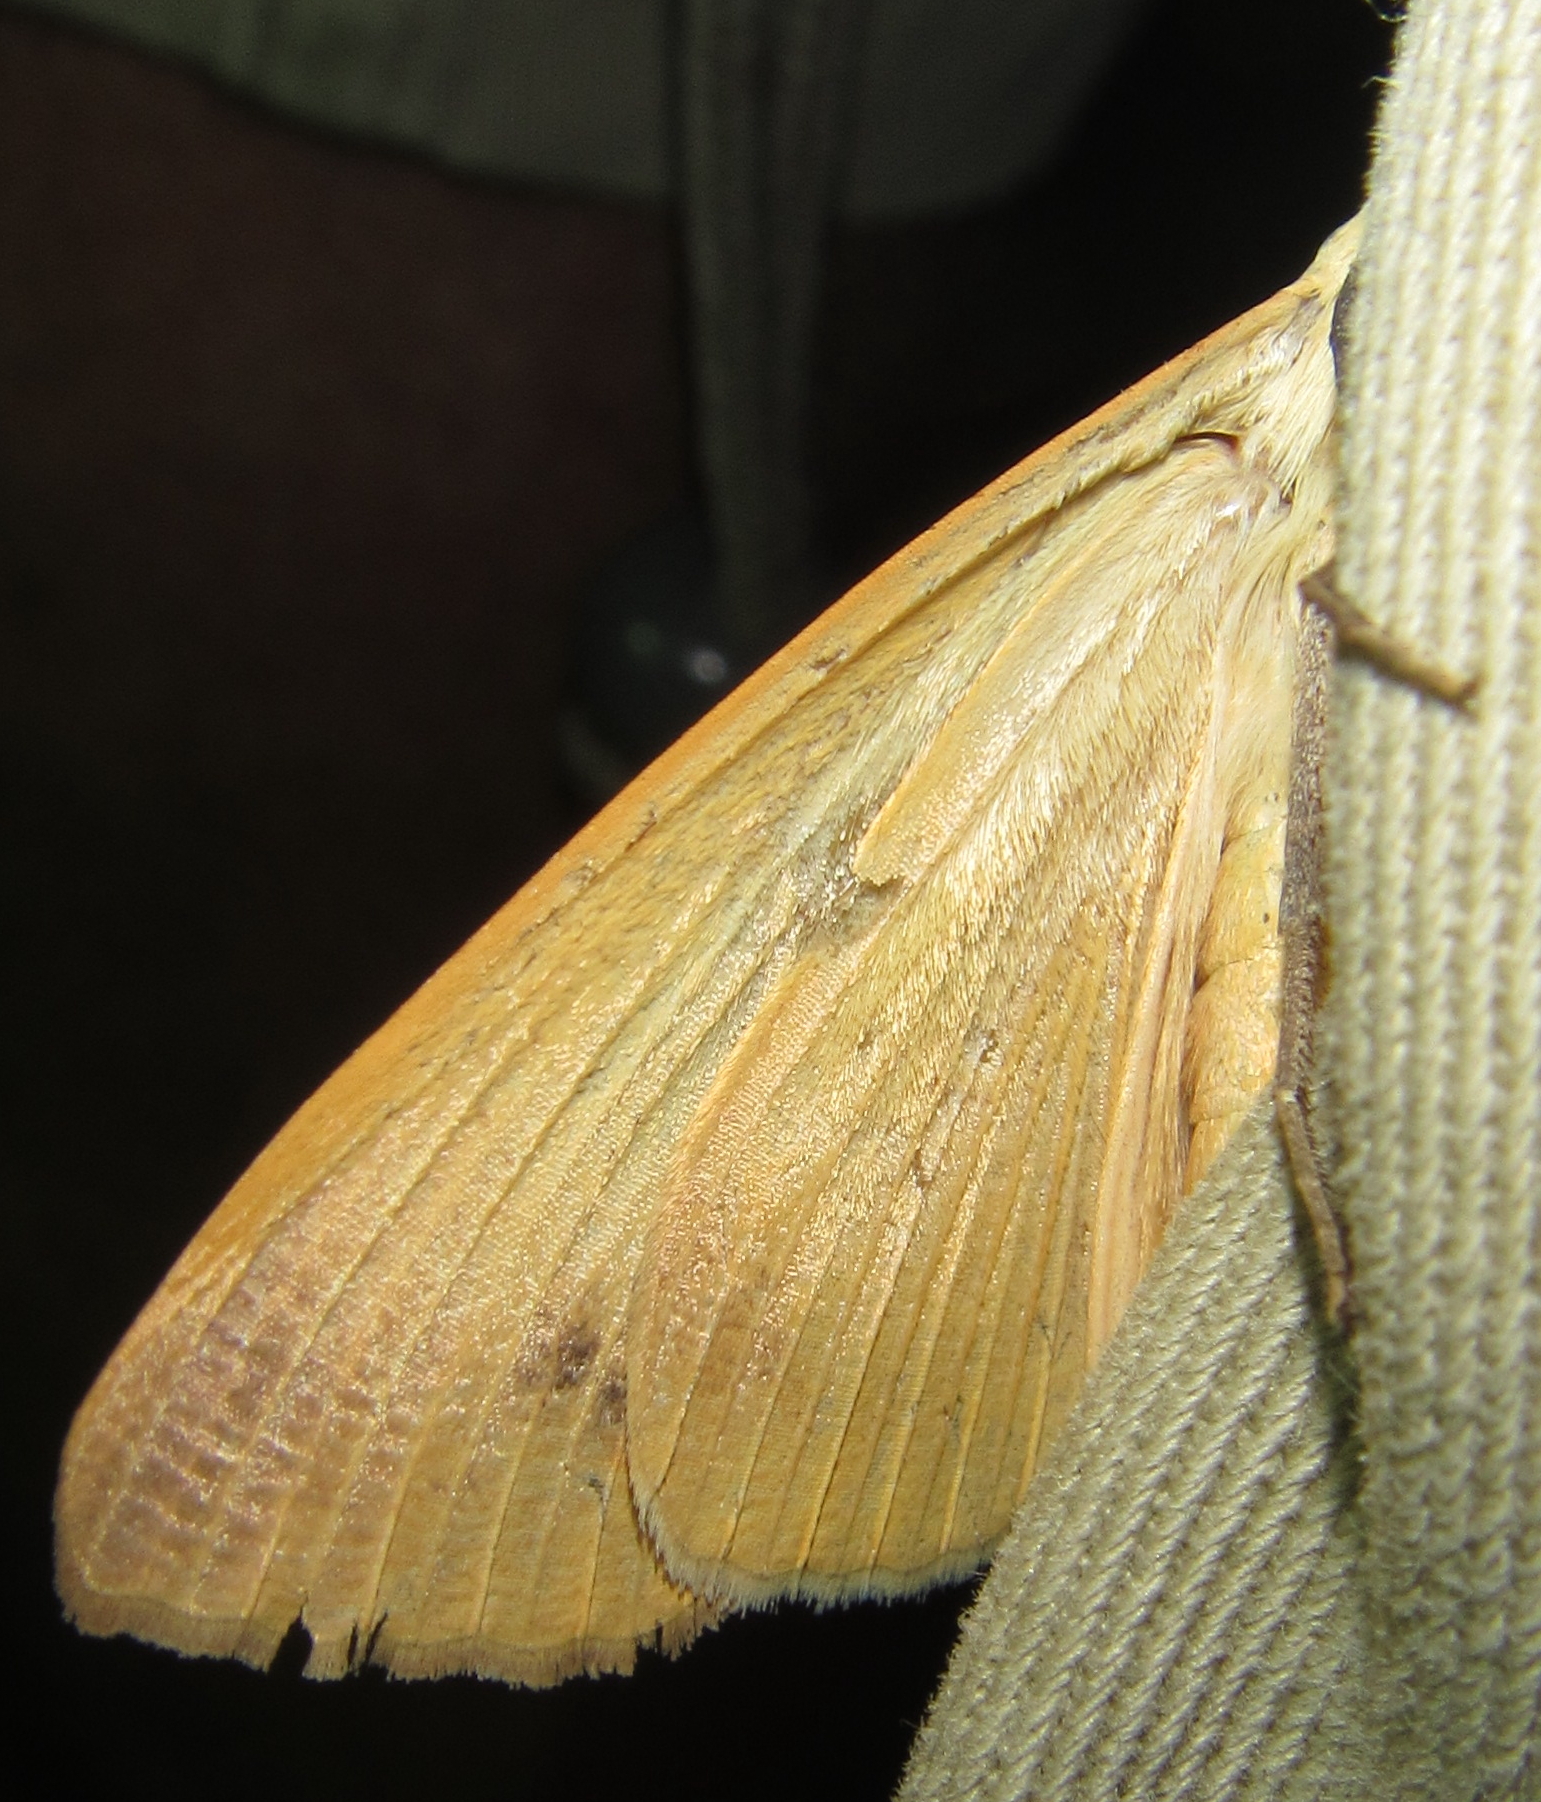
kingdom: Animalia
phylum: Arthropoda
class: Insecta
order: Lepidoptera
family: Erebidae
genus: Ophiusa
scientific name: Ophiusa tirhaca
